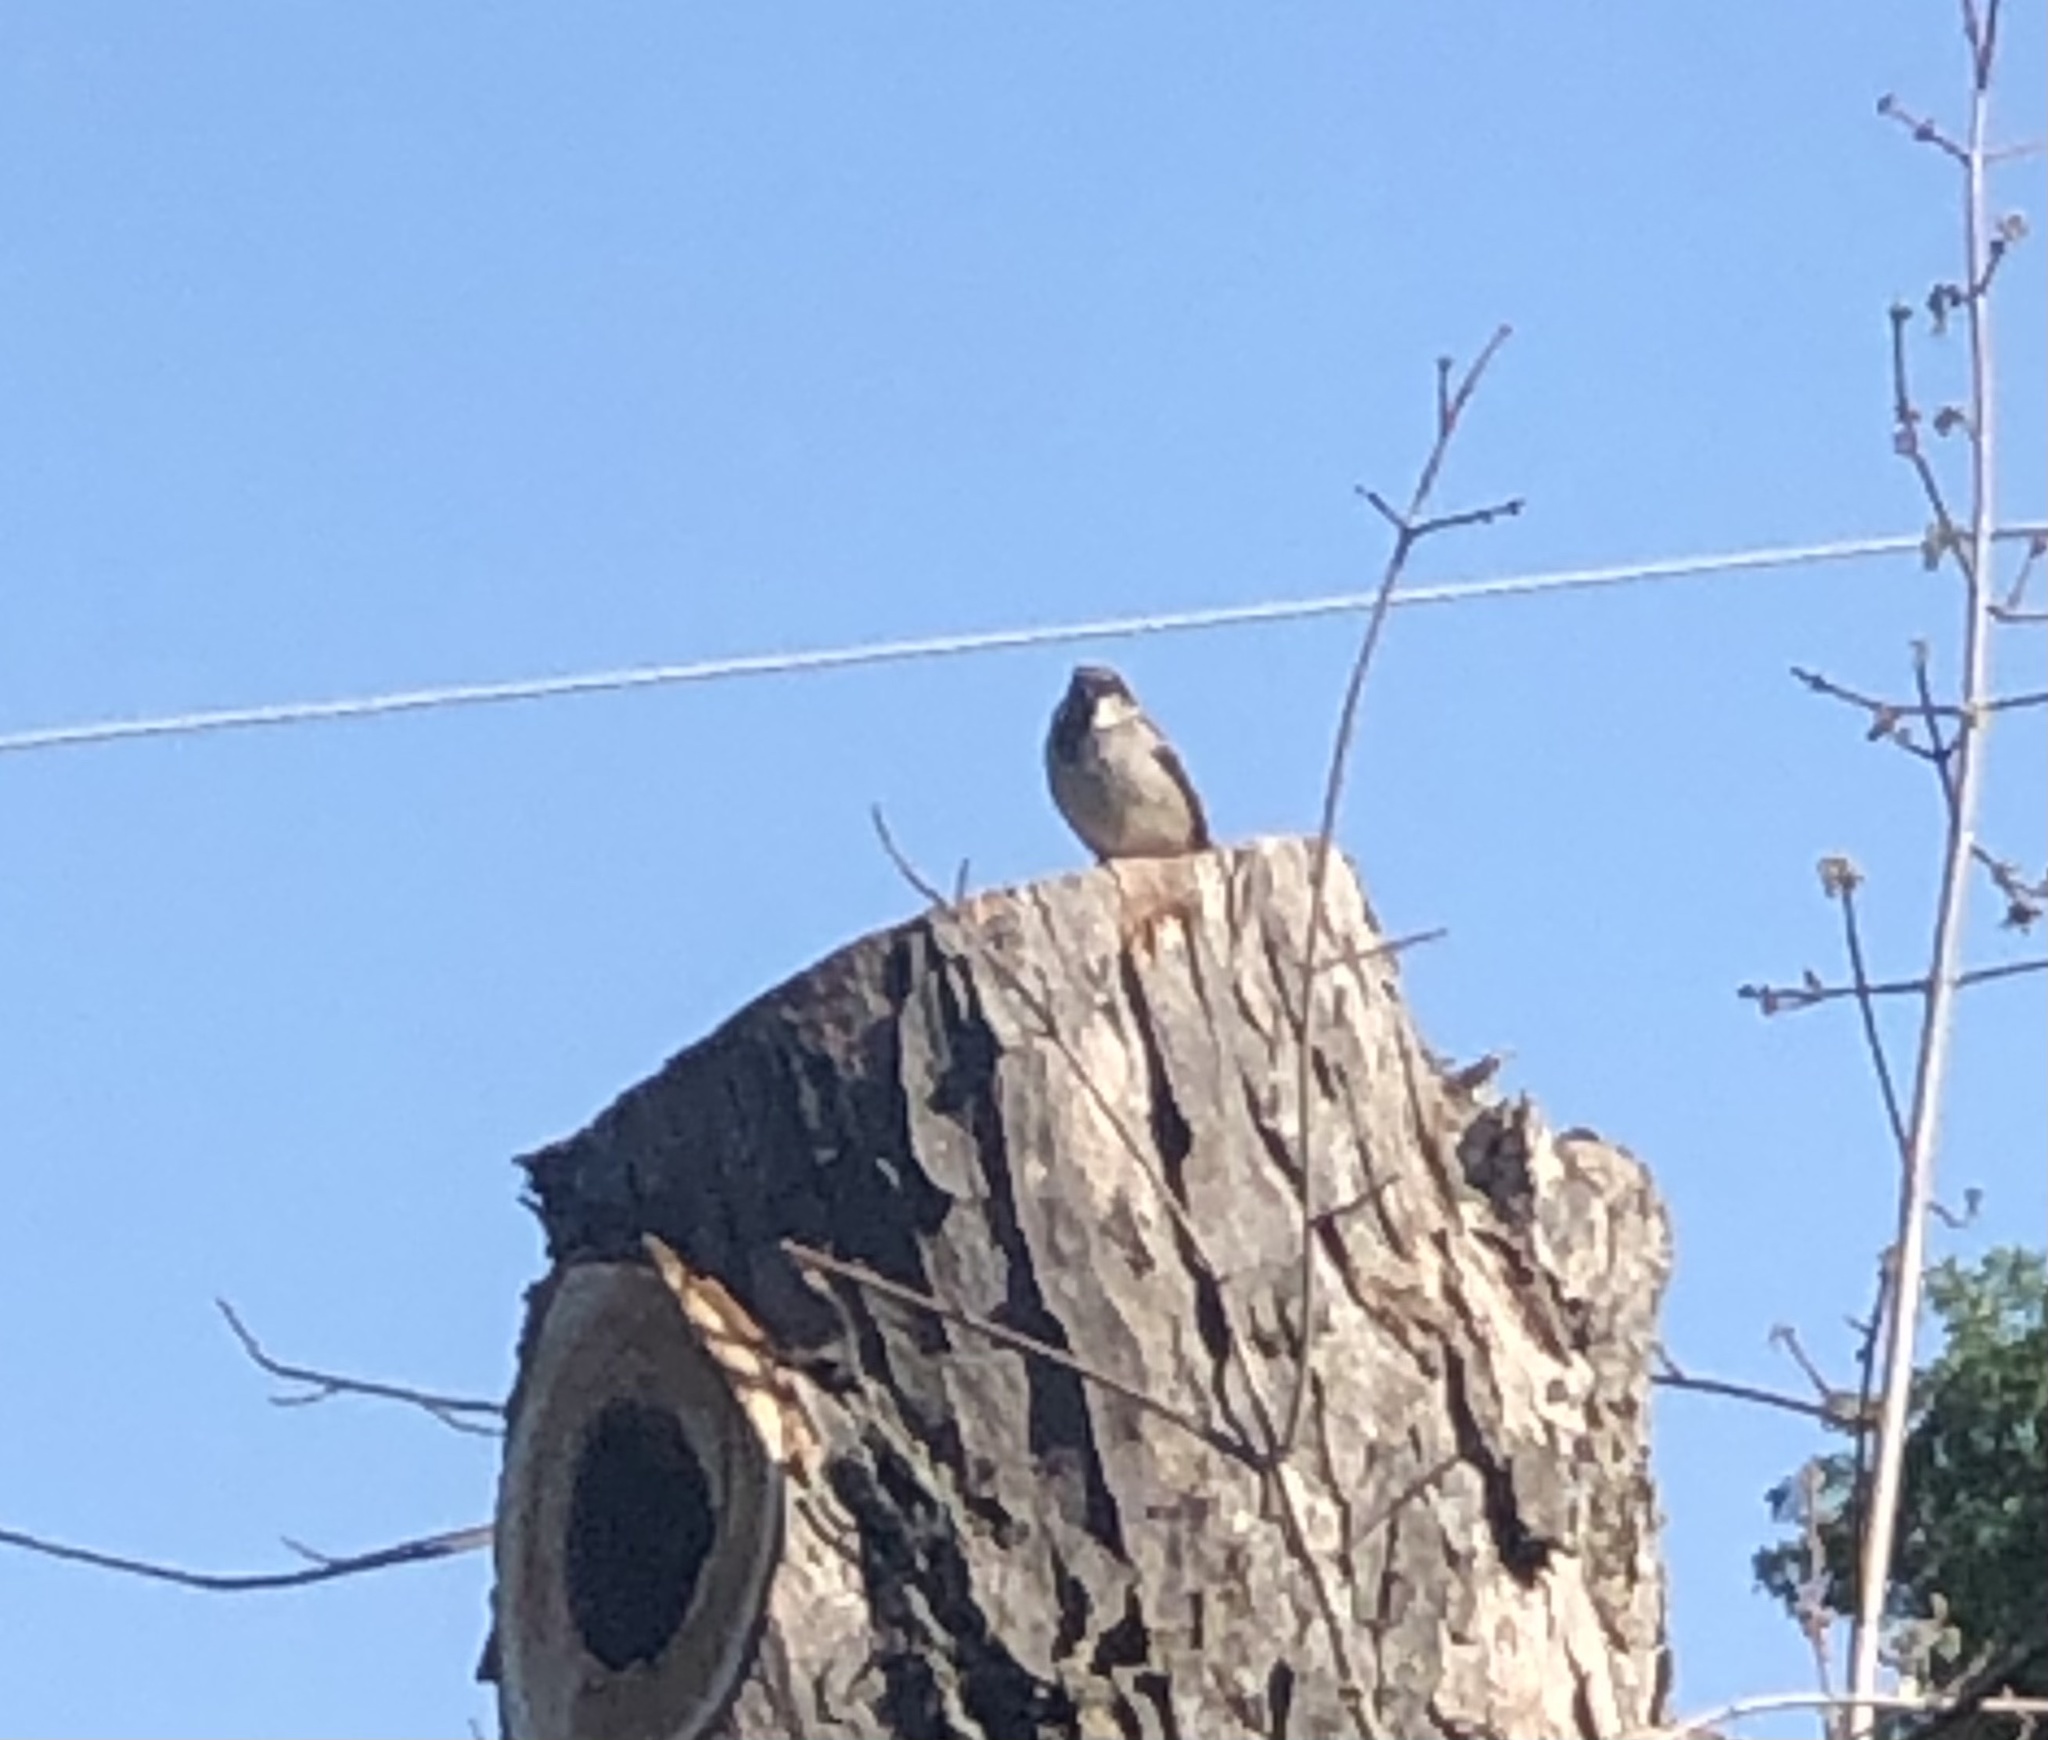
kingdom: Animalia
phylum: Chordata
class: Aves
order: Passeriformes
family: Passeridae
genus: Passer
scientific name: Passer domesticus
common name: House sparrow
